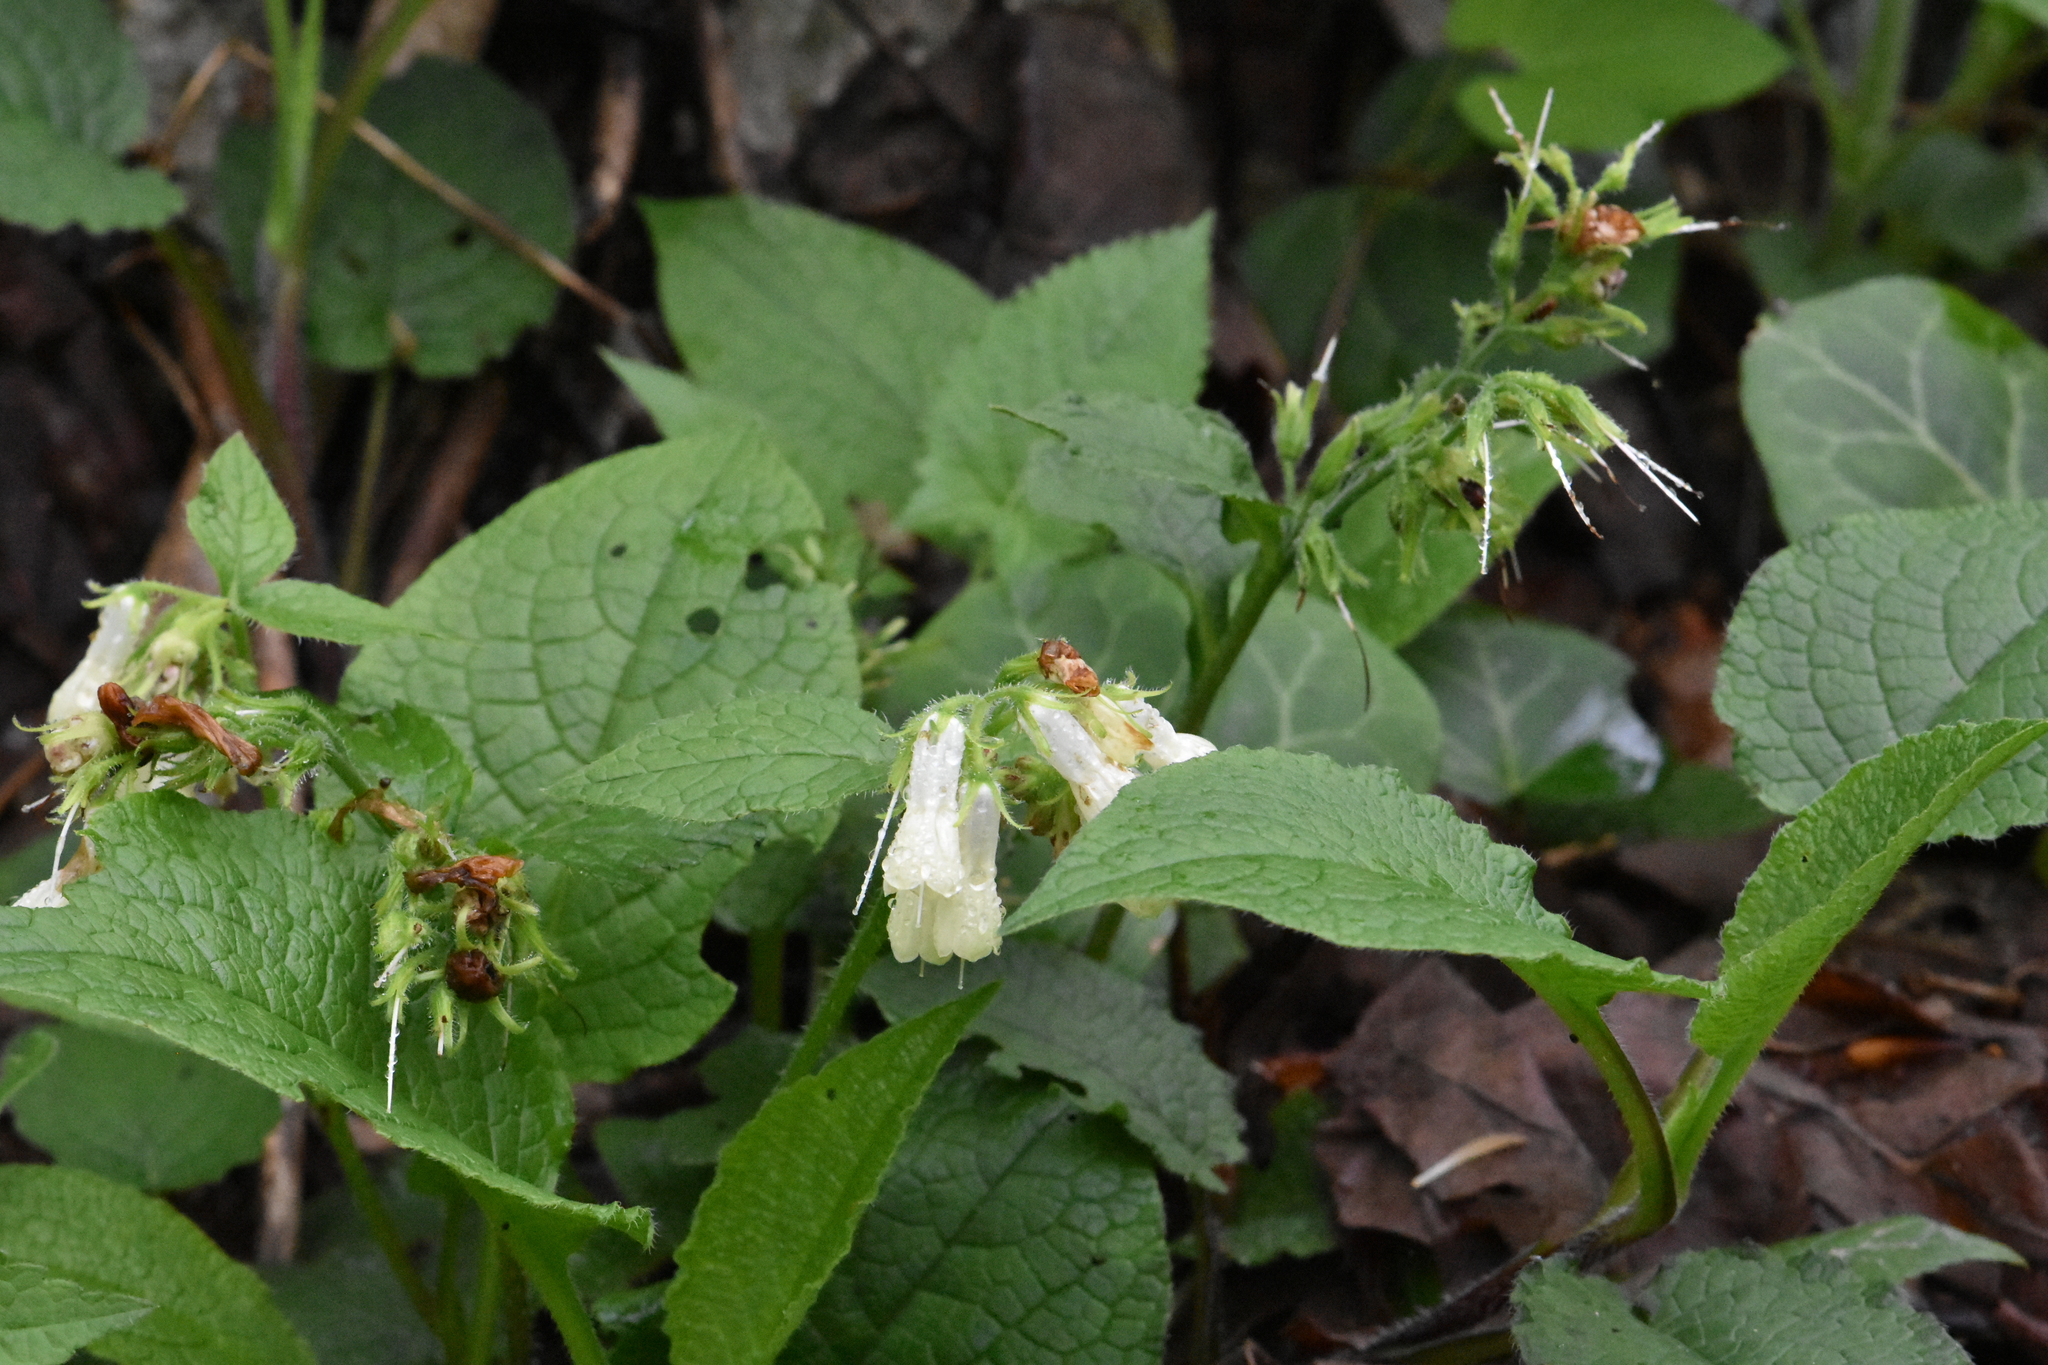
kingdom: Plantae
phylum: Tracheophyta
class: Magnoliopsida
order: Boraginales
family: Boraginaceae
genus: Symphytum
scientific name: Symphytum grandiflorum
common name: Creeping comfrey
